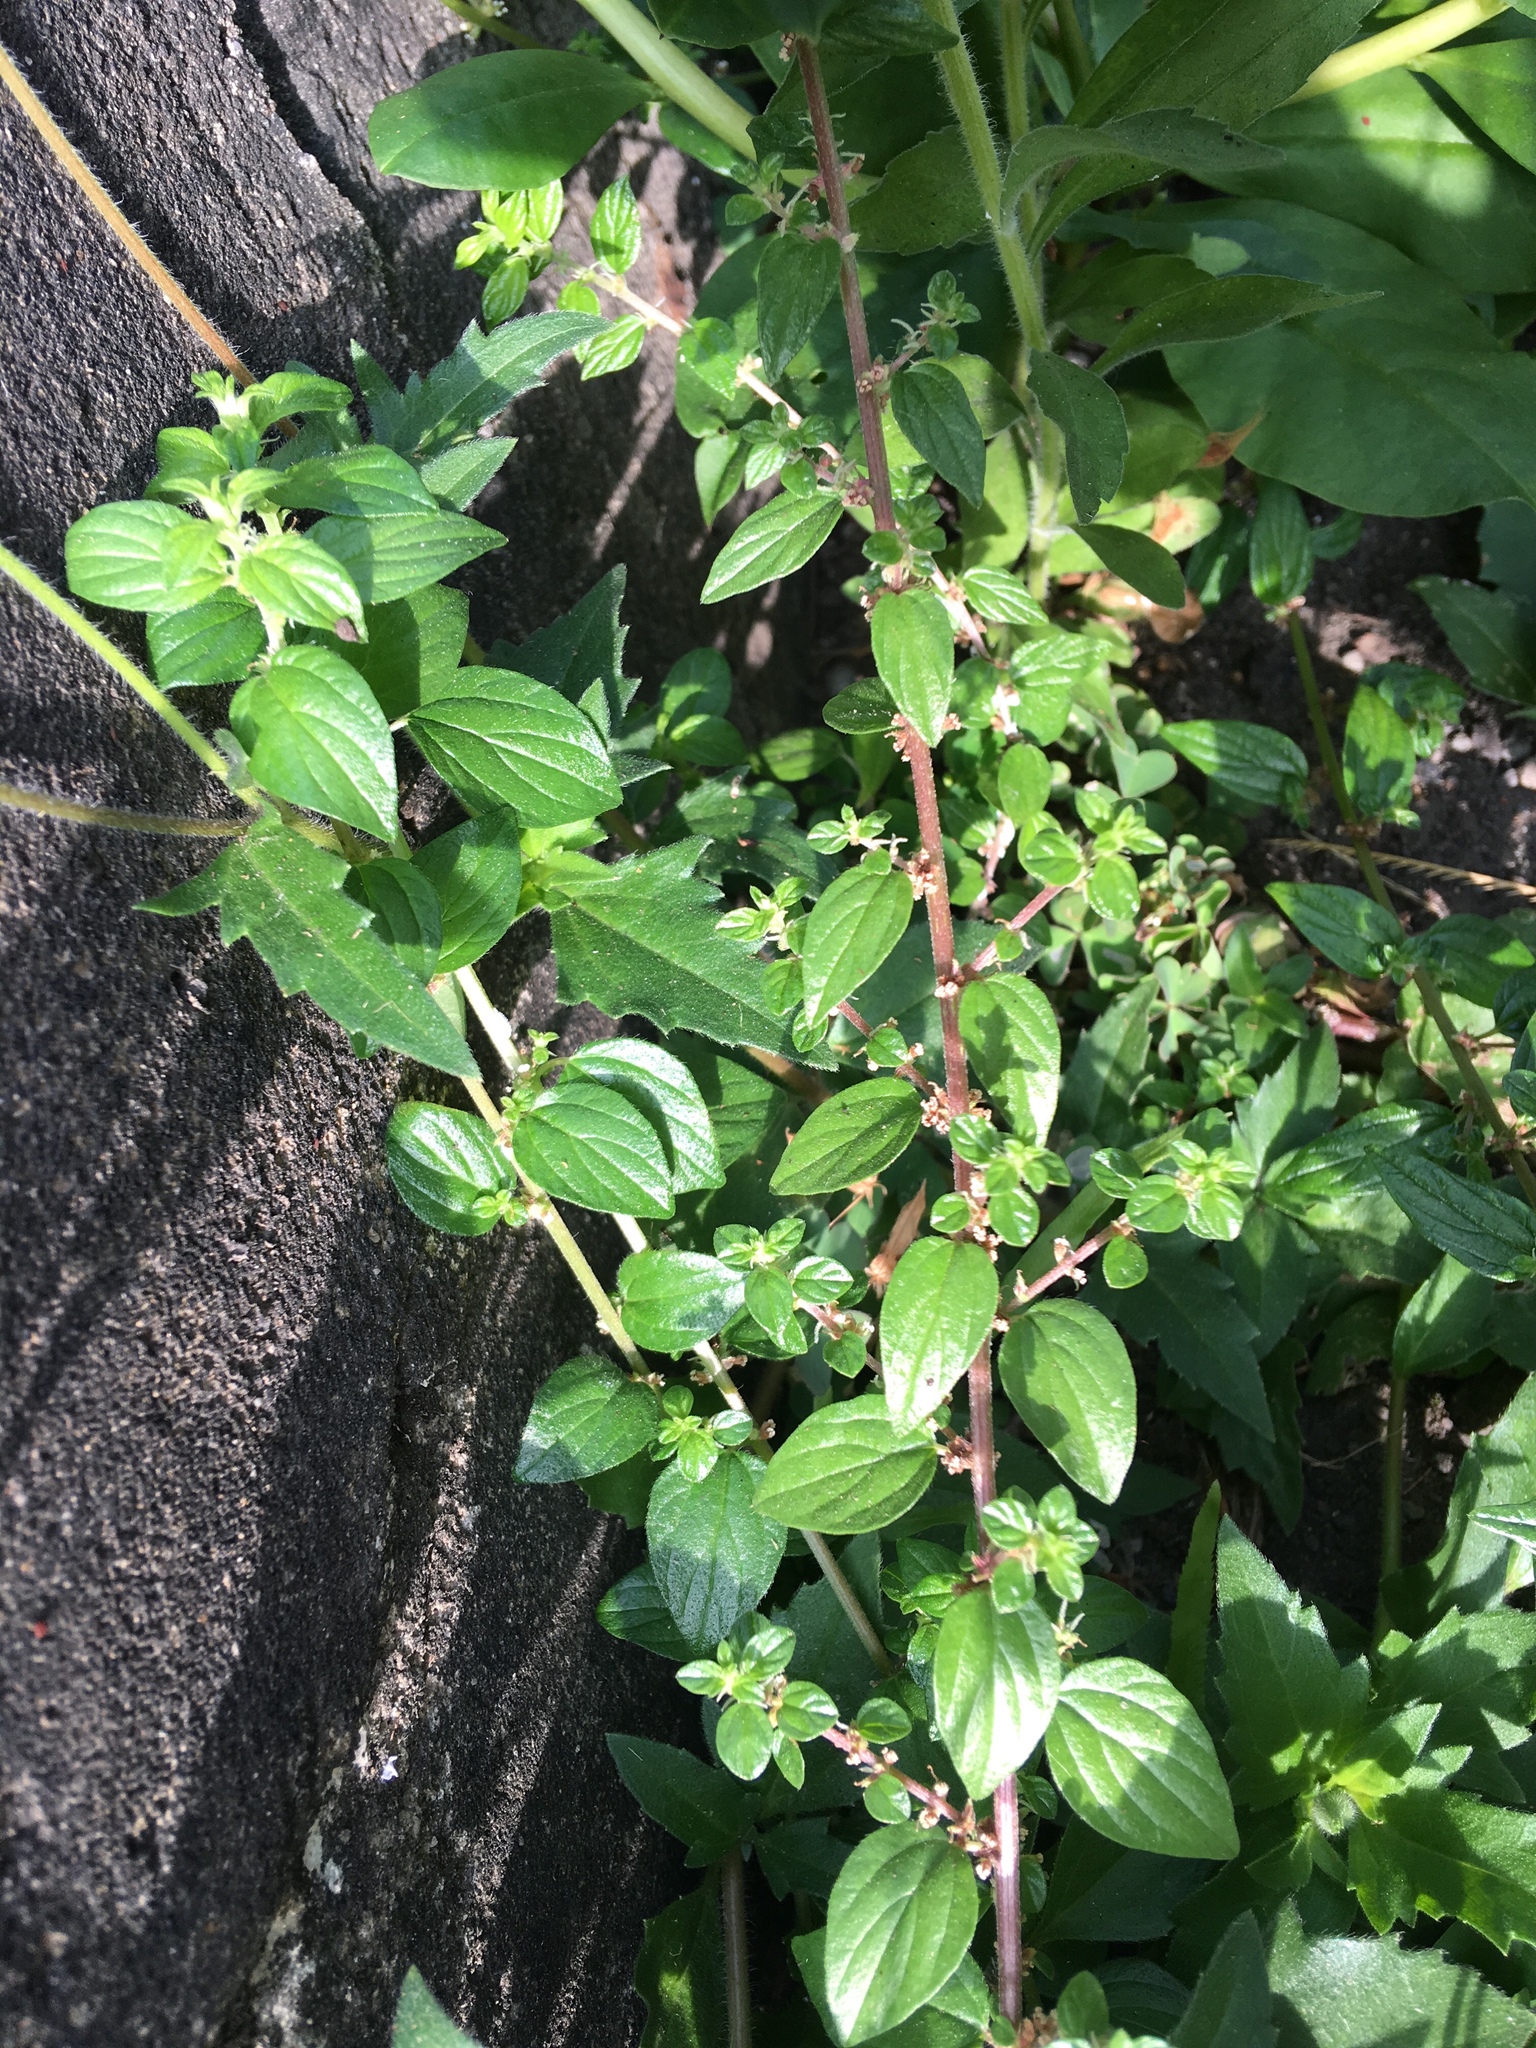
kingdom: Plantae
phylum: Tracheophyta
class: Magnoliopsida
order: Rosales
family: Urticaceae
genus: Pouzolzia
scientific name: Pouzolzia zeylanica
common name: Graceful pouzolzsbush
